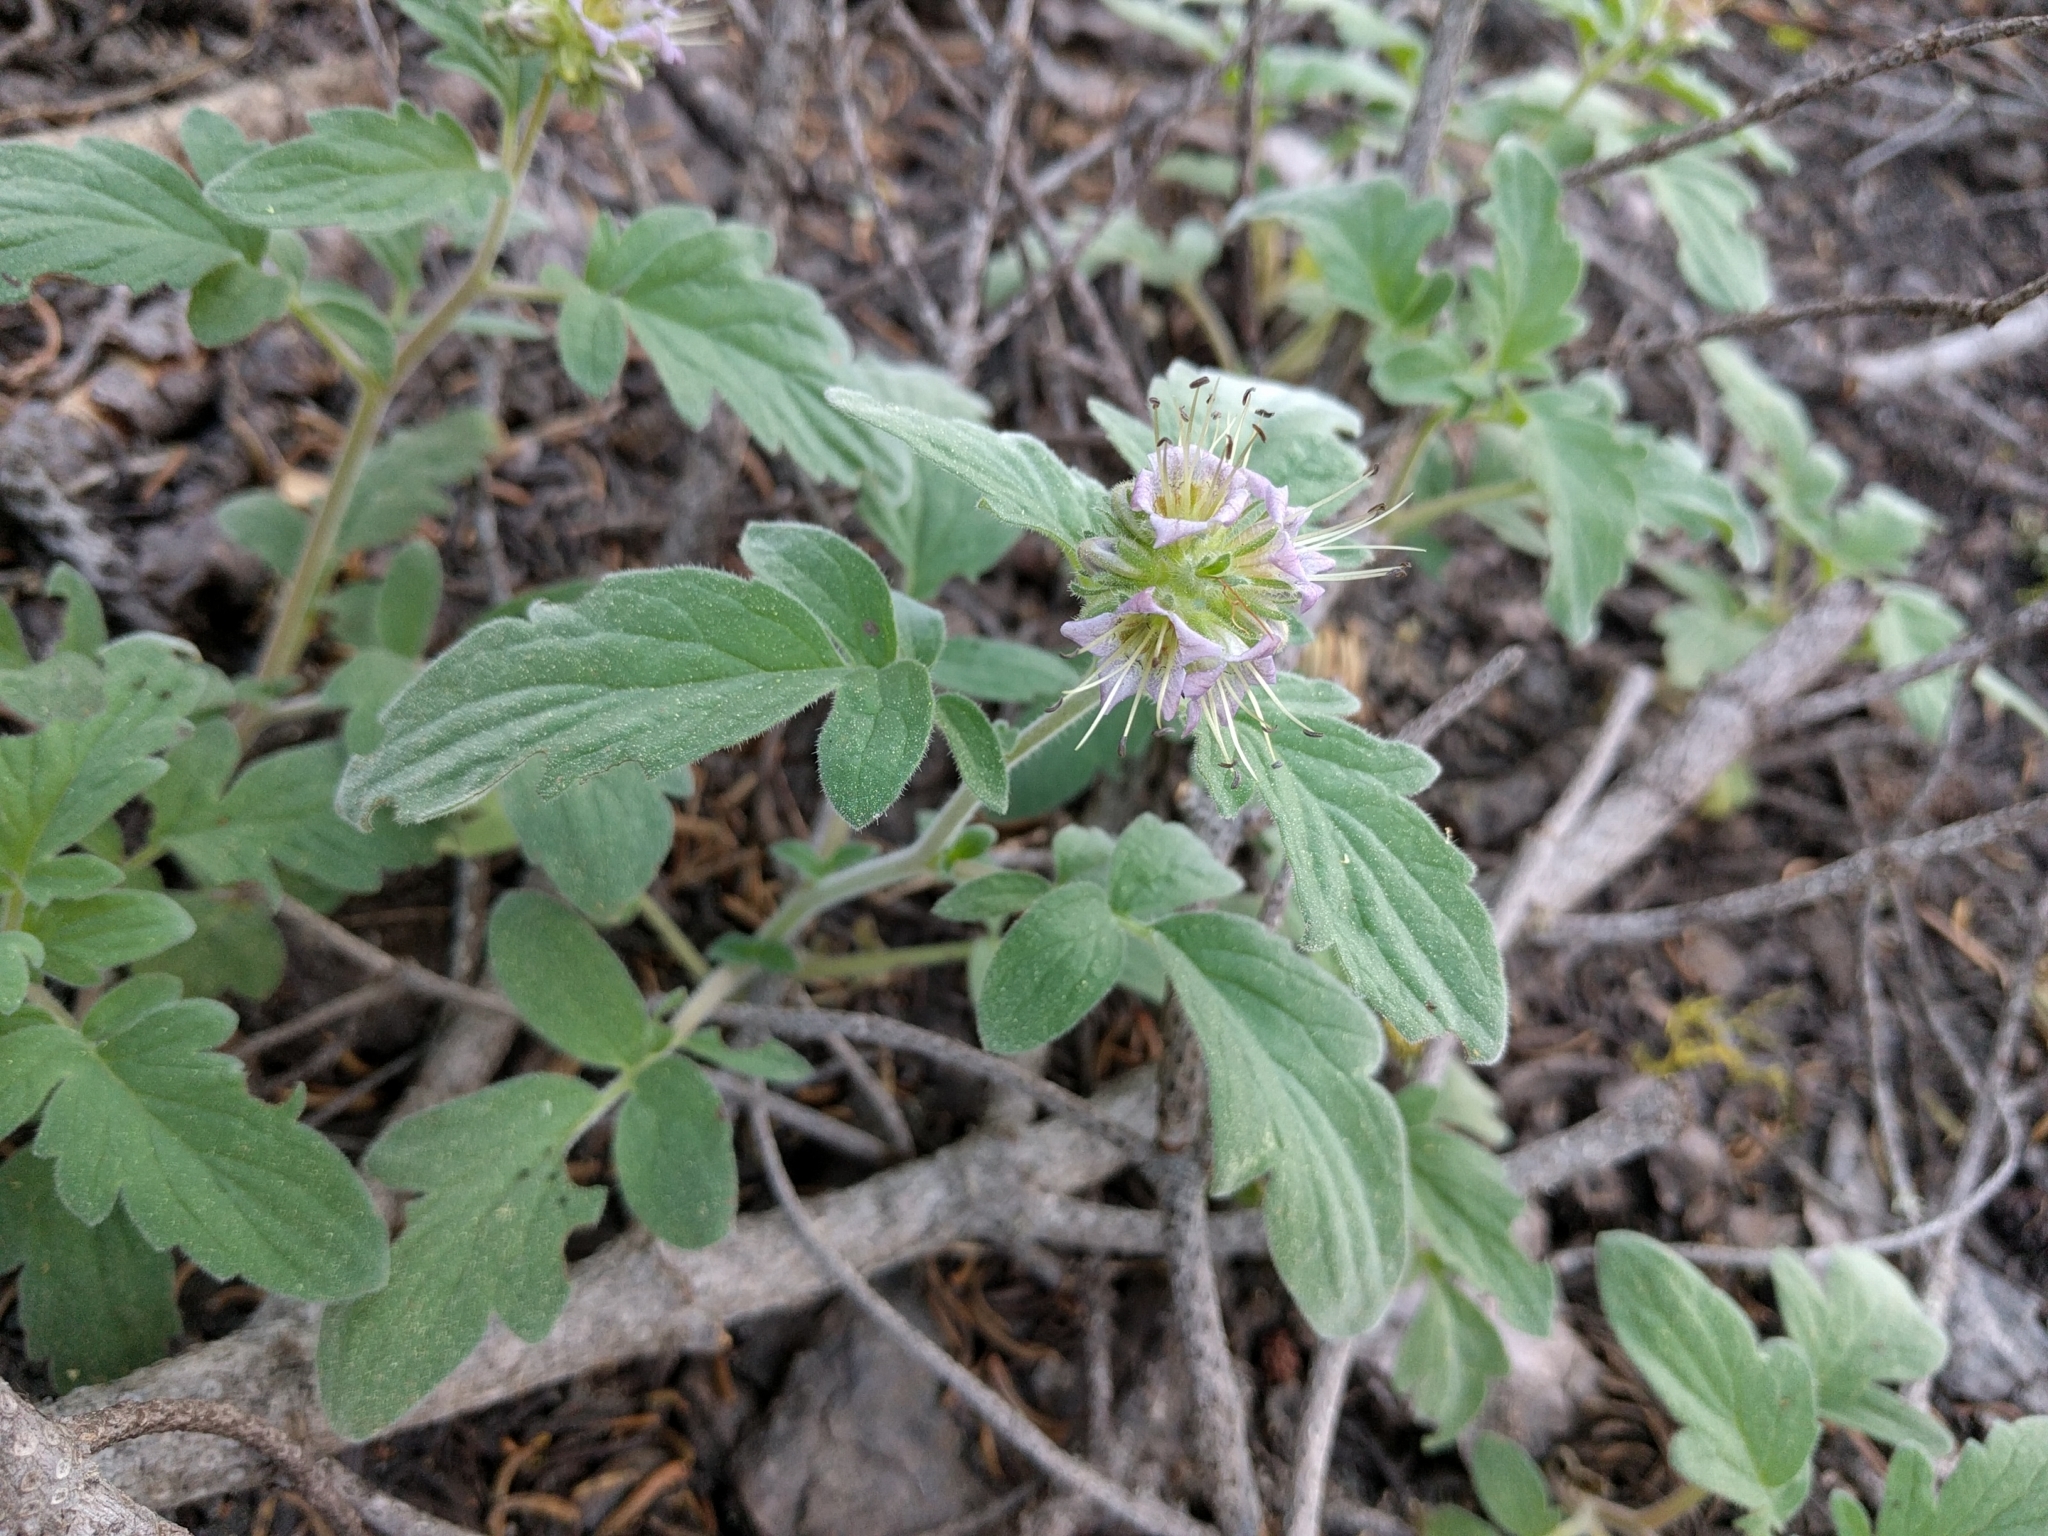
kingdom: Plantae
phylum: Tracheophyta
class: Magnoliopsida
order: Boraginales
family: Hydrophyllaceae
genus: Phacelia
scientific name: Phacelia hydrophylloides
